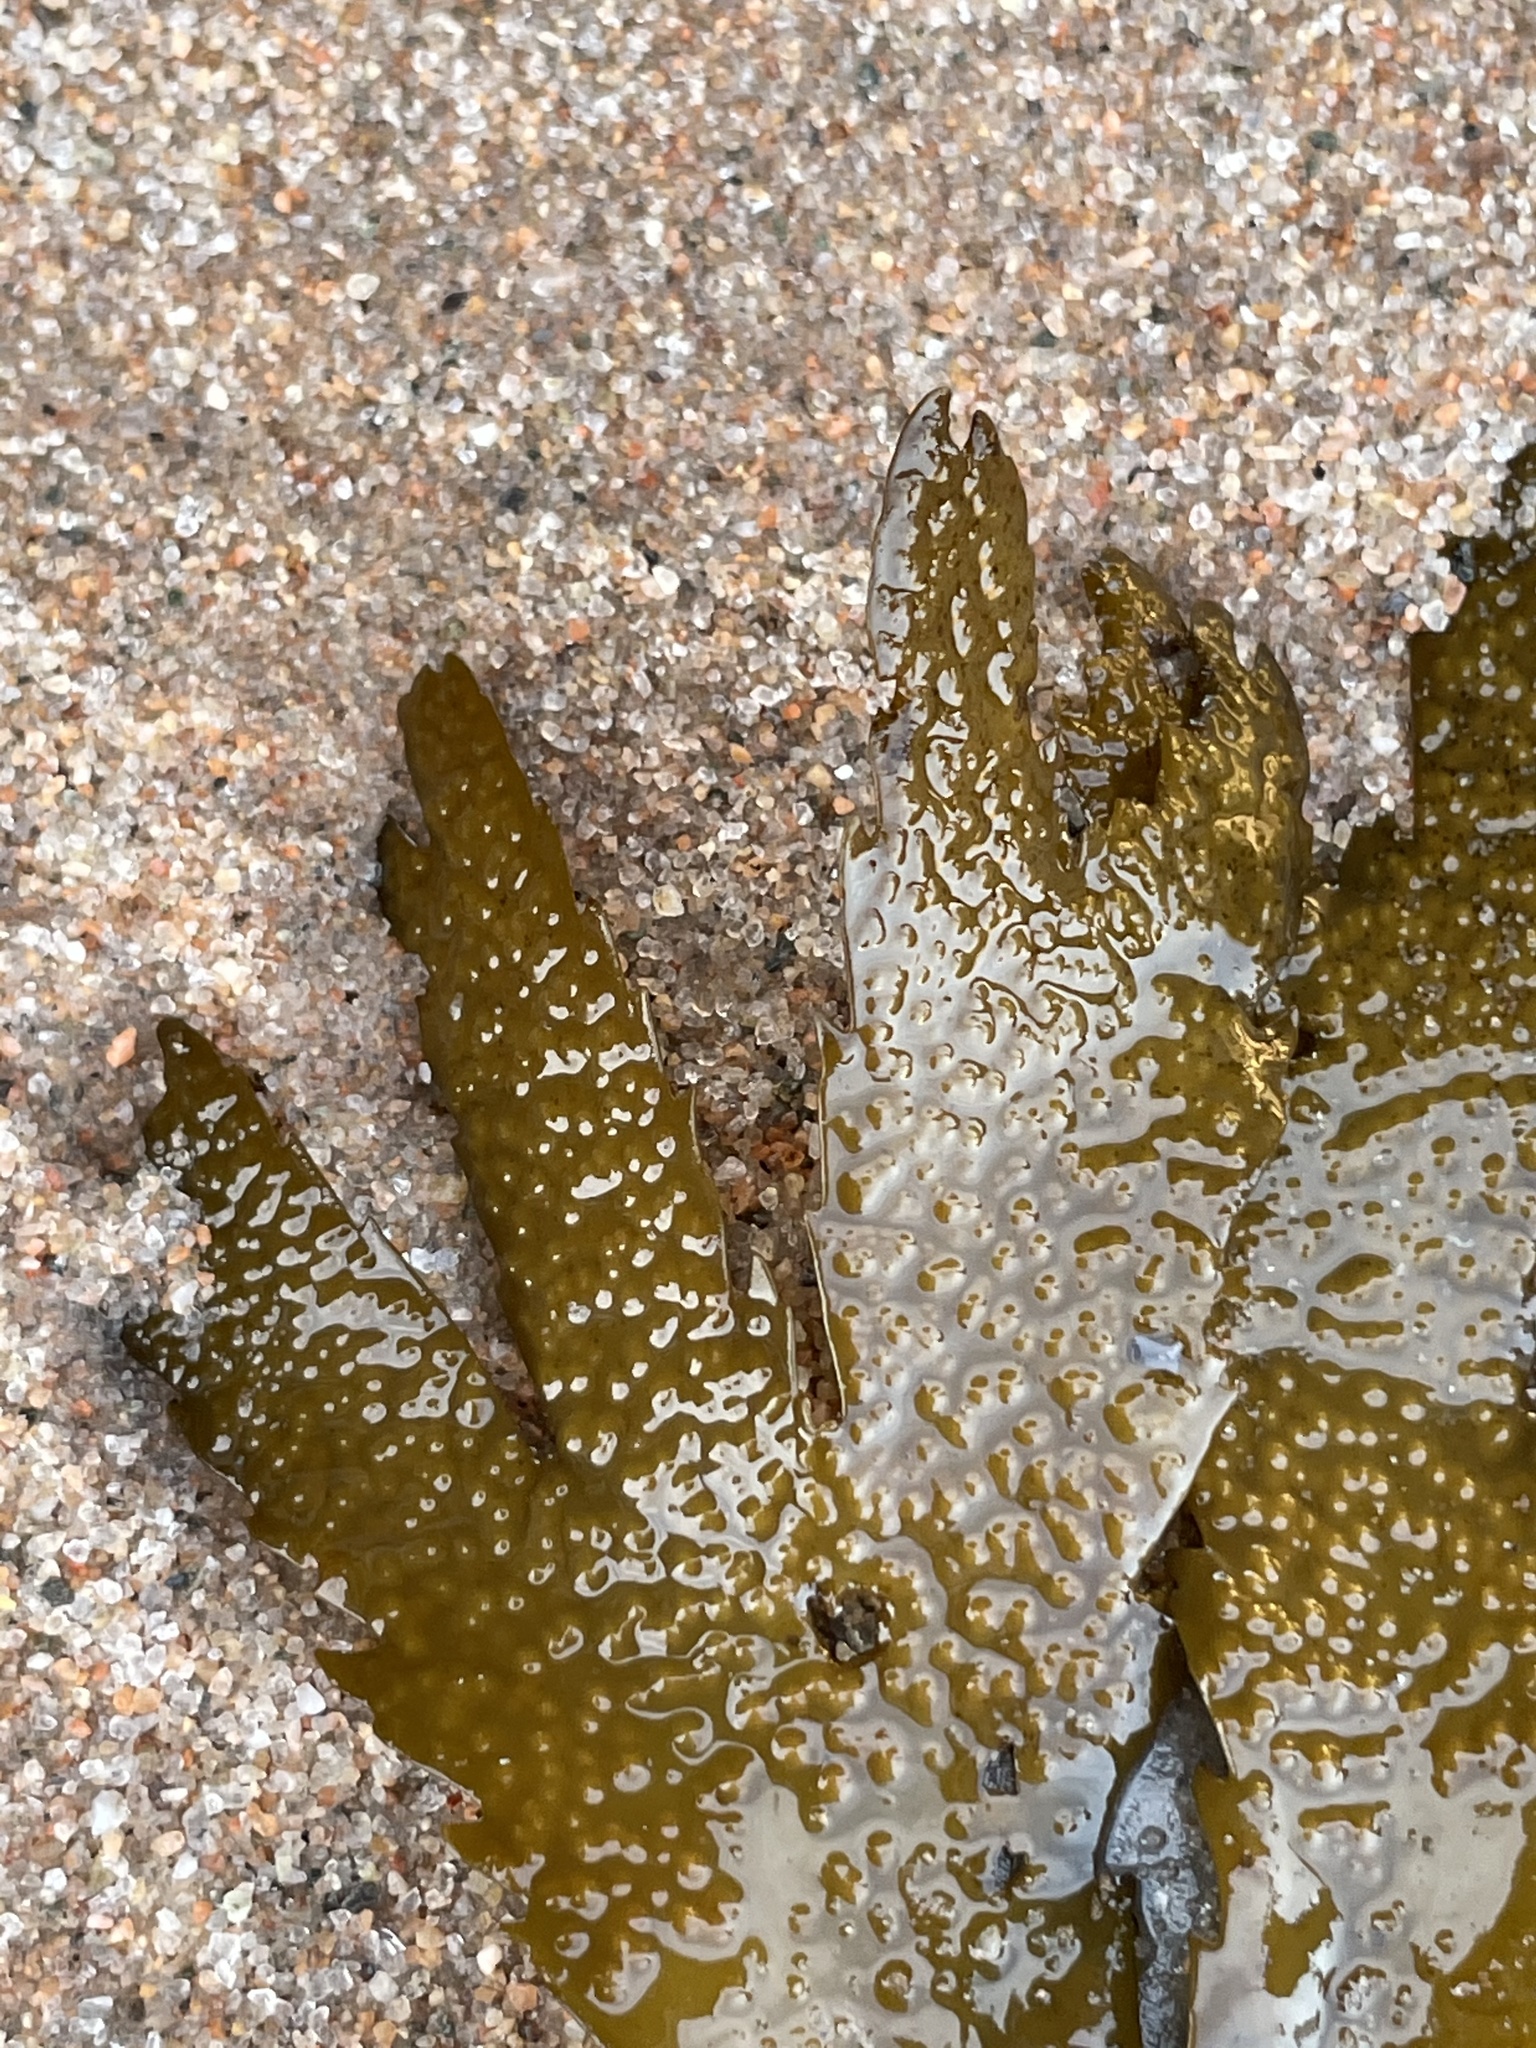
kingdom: Chromista
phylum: Ochrophyta
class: Phaeophyceae
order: Fucales
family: Fucaceae
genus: Fucus
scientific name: Fucus serratus
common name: Toothed wrack
